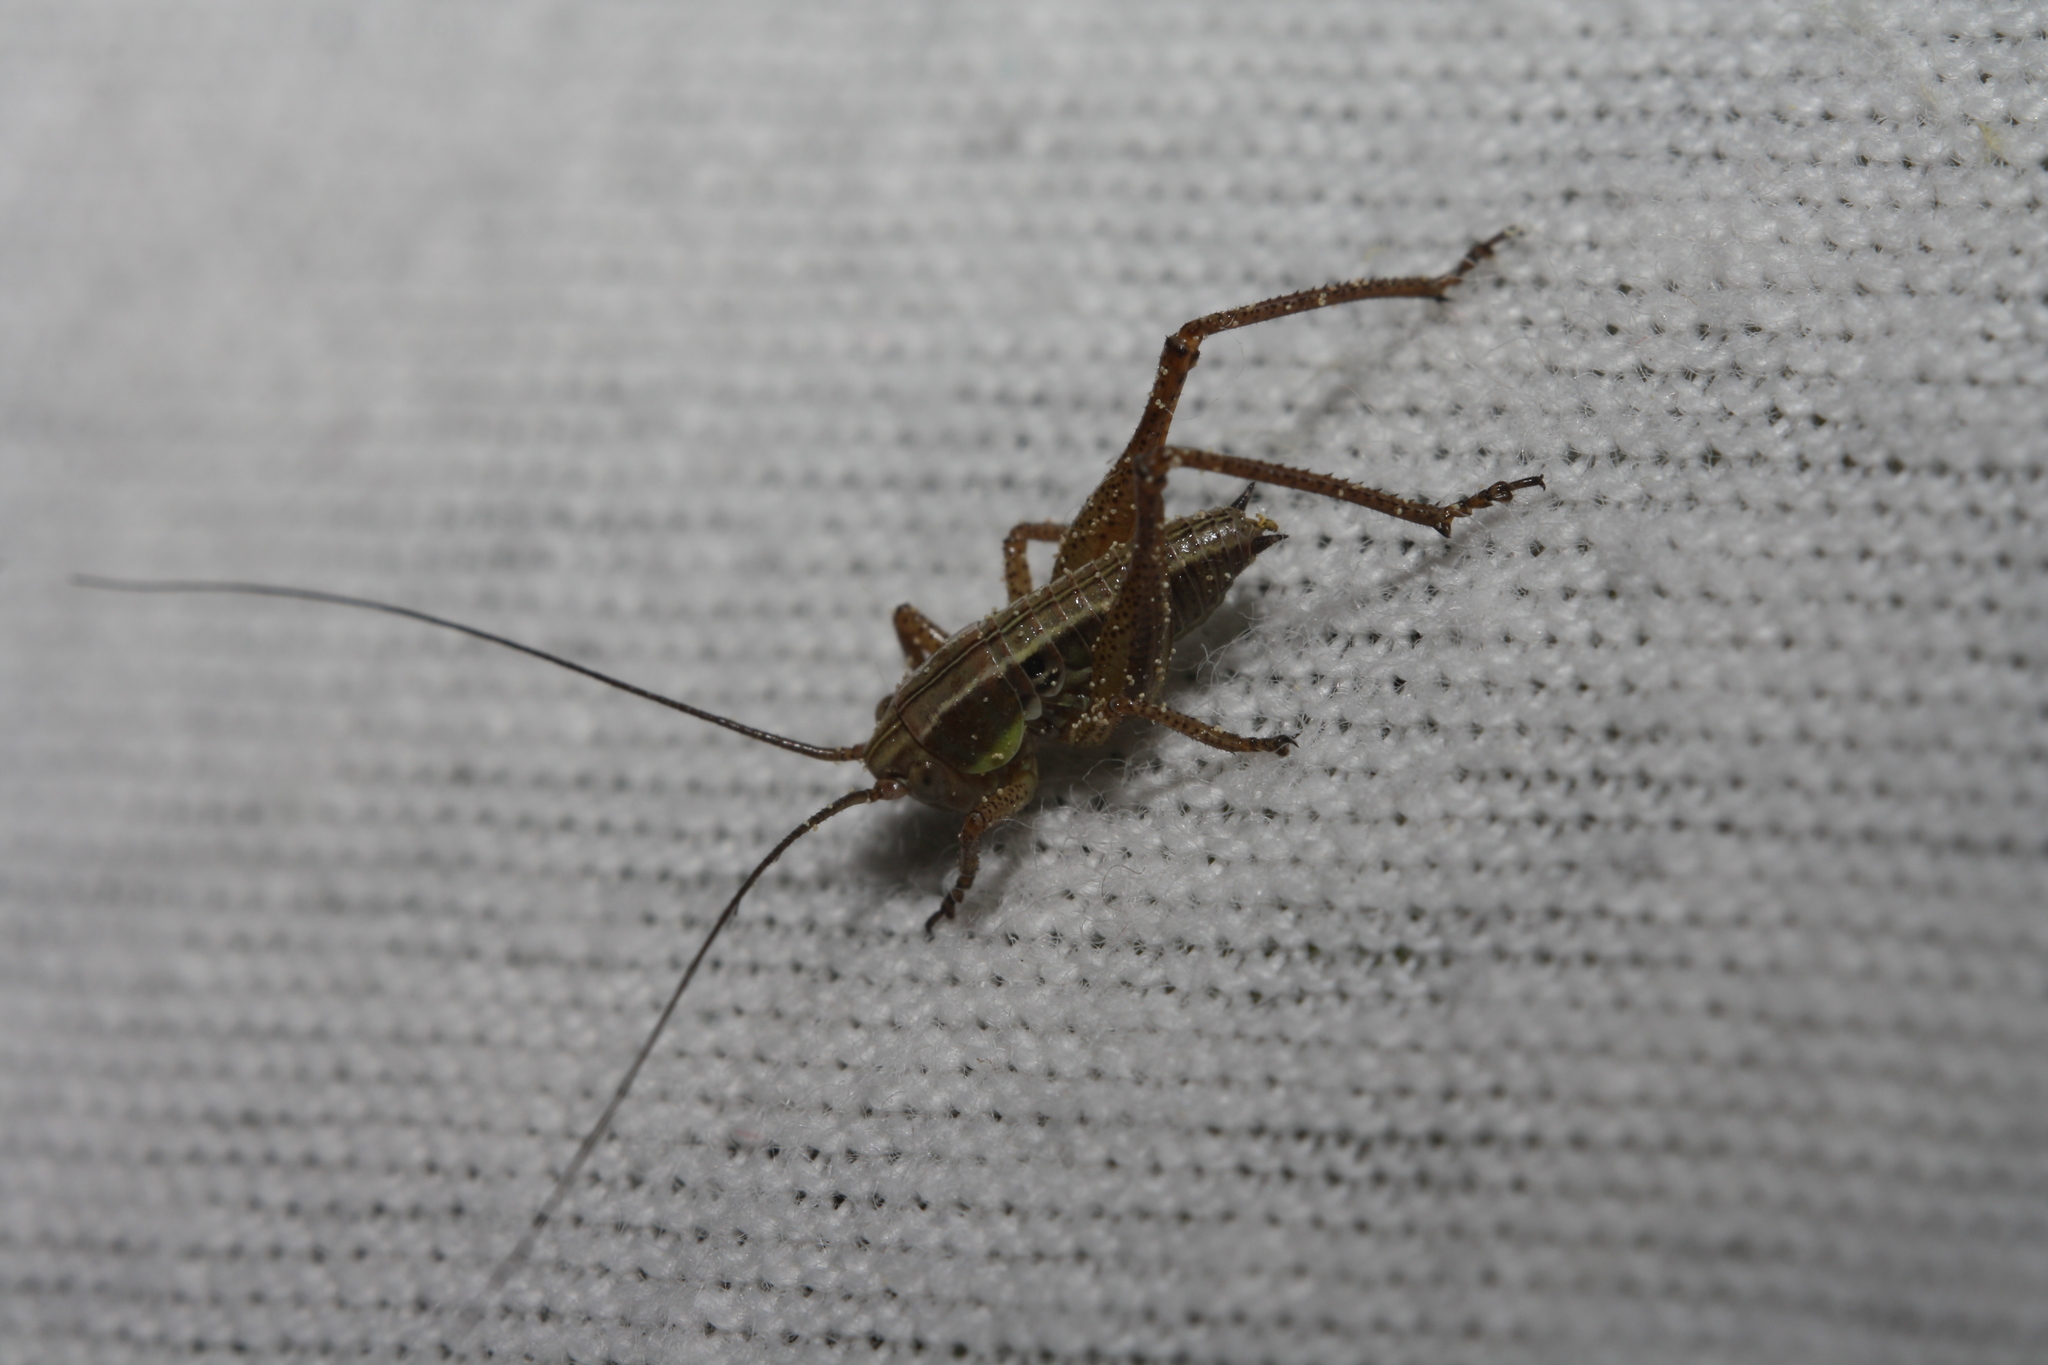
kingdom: Animalia
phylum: Arthropoda
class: Insecta
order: Orthoptera
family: Tettigoniidae
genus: Roeseliana
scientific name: Roeseliana roeselii
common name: Roesel's bush cricket
